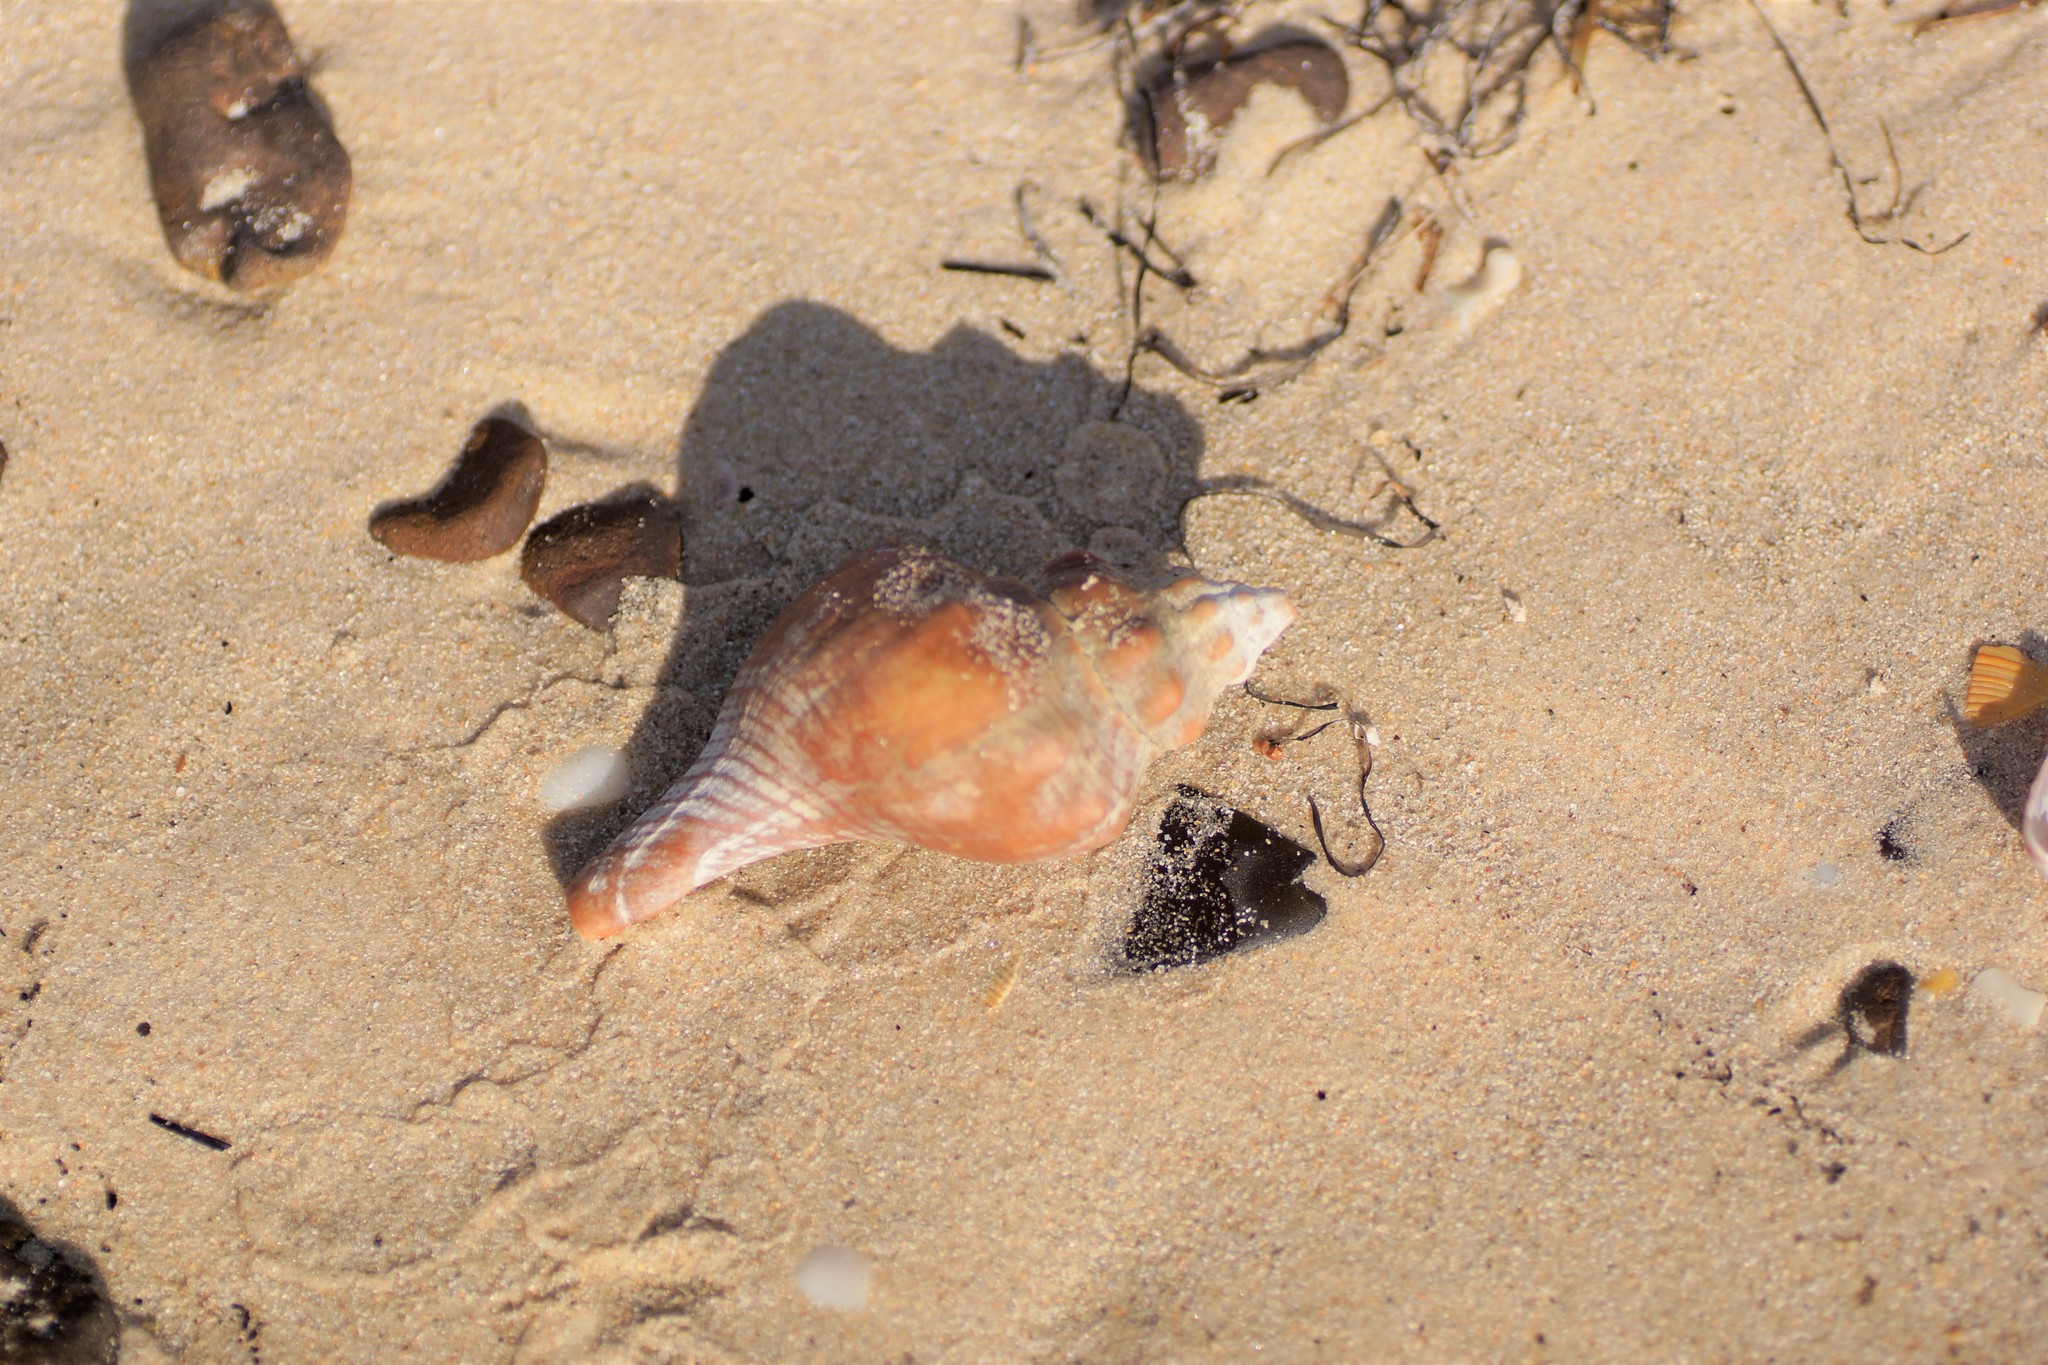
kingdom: Animalia
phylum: Mollusca
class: Gastropoda
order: Neogastropoda
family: Fasciolariidae
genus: Australaria
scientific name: Australaria australasia
